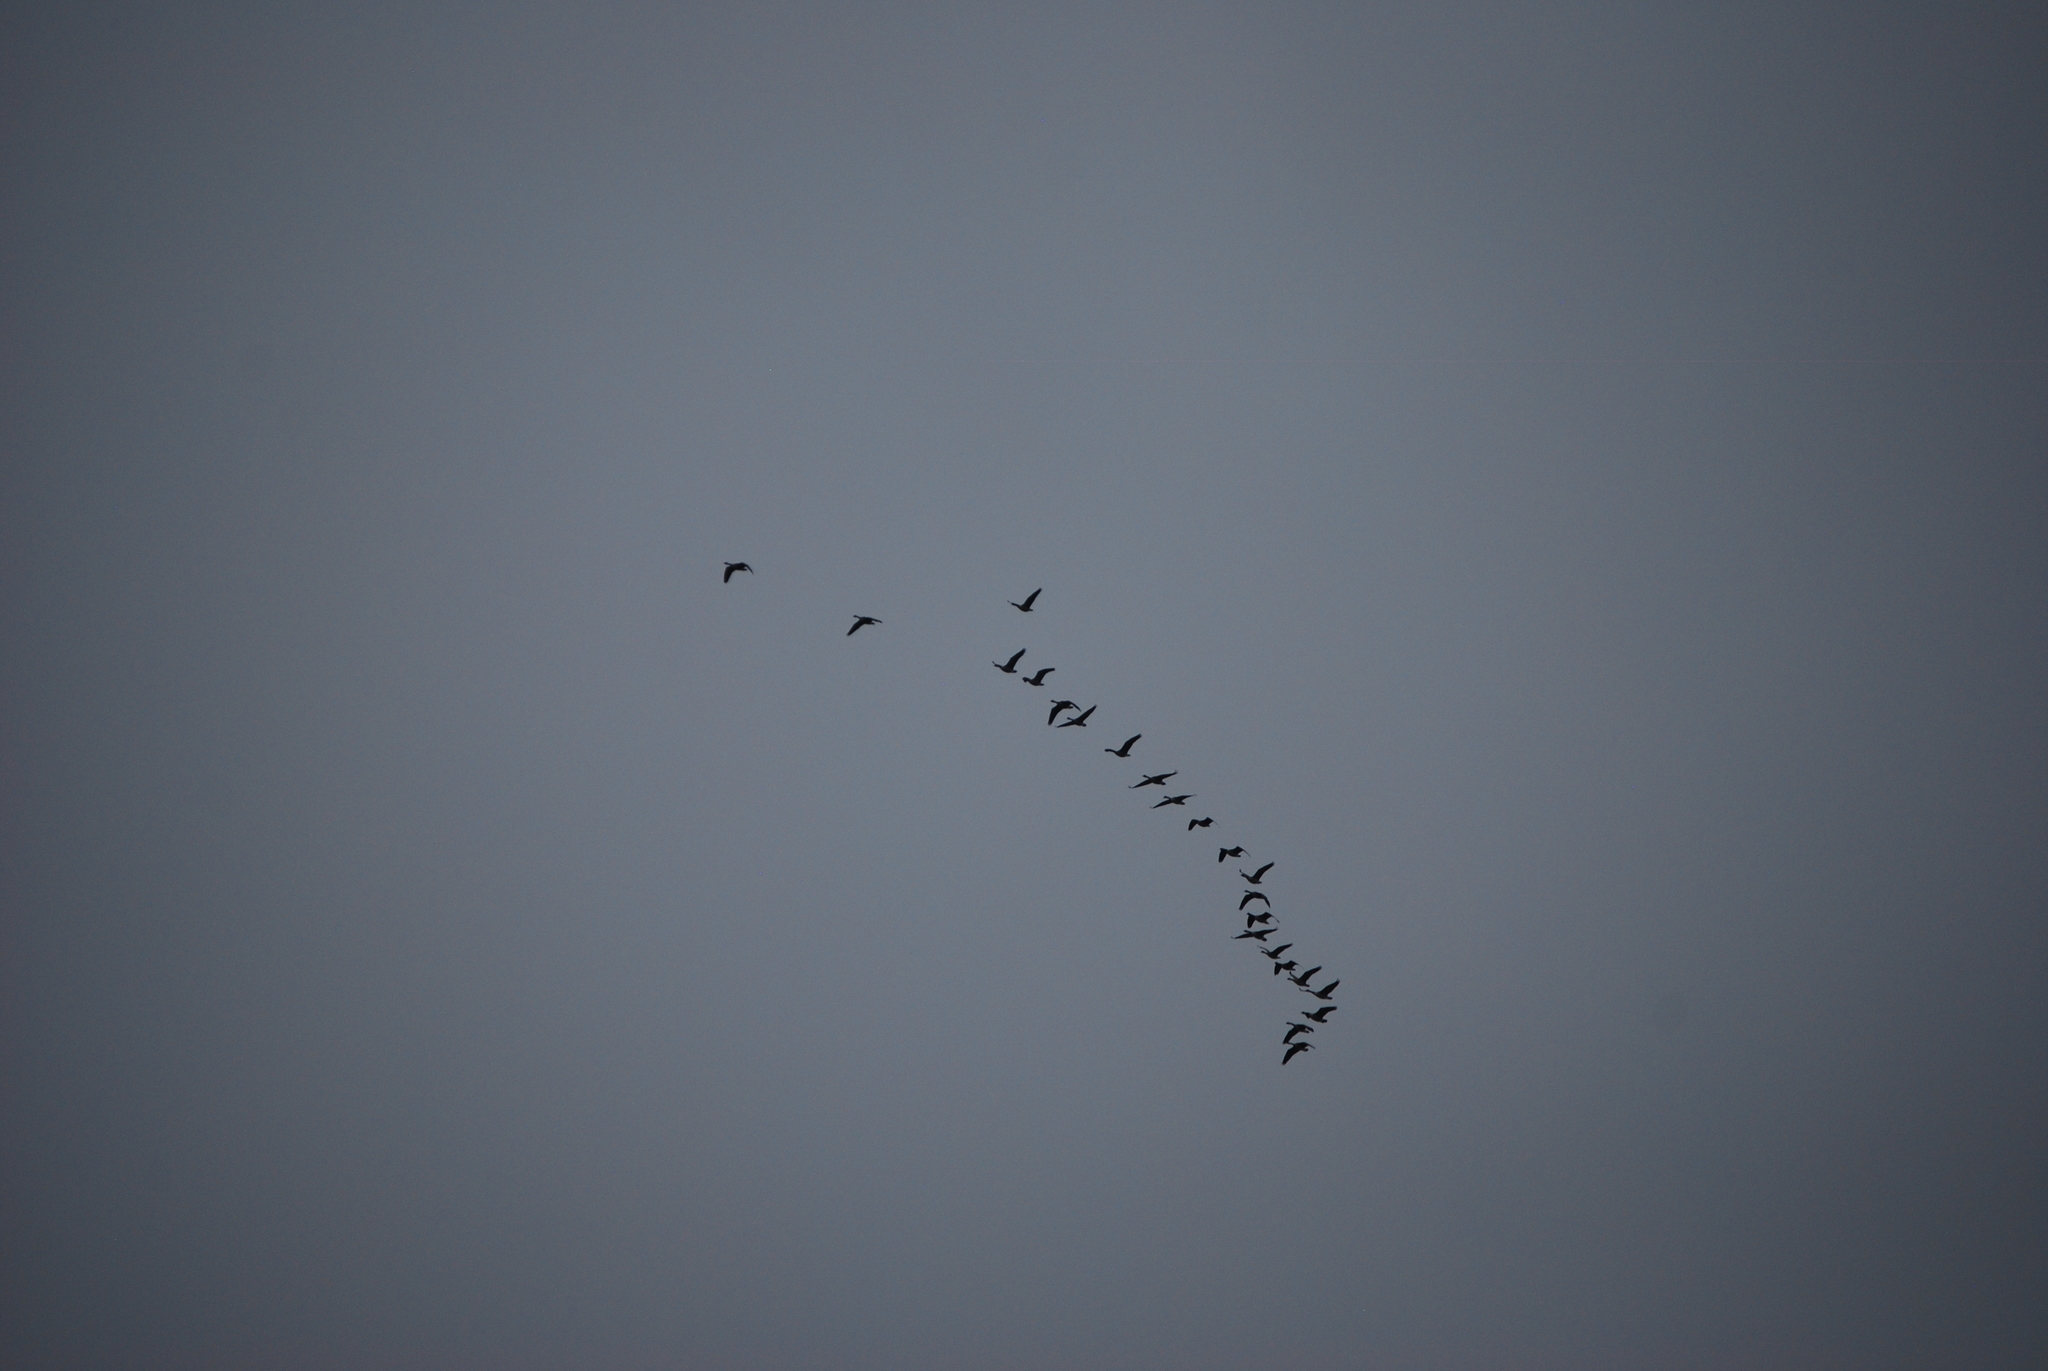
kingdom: Animalia
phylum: Chordata
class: Aves
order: Anseriformes
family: Anatidae
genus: Branta
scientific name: Branta canadensis
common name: Canada goose
